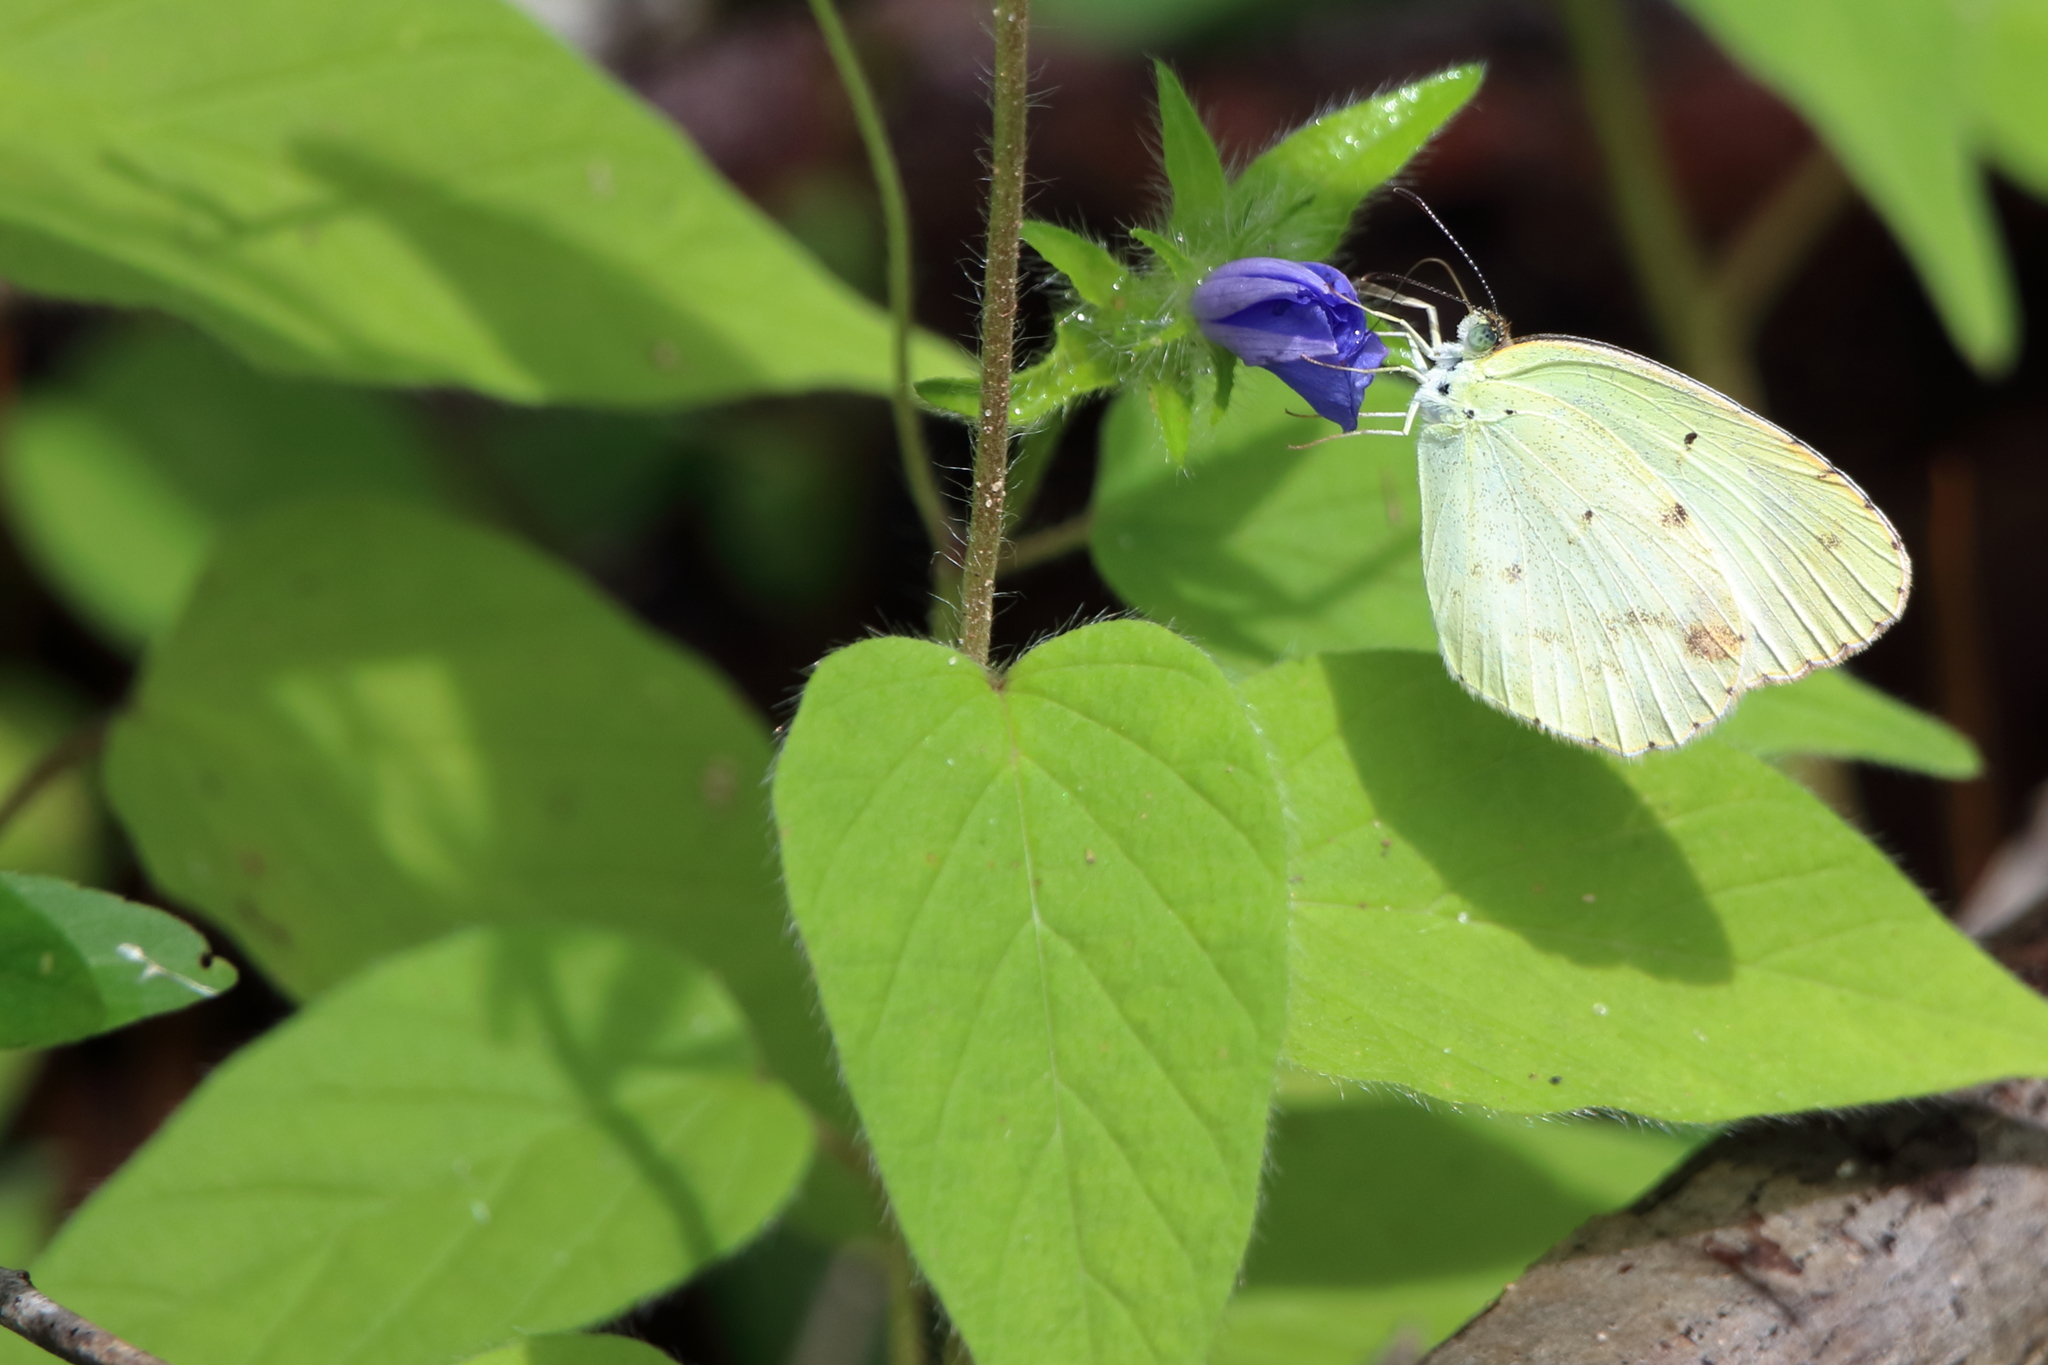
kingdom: Animalia
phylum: Arthropoda
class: Insecta
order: Lepidoptera
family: Pieridae
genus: Pyrisitia
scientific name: Pyrisitia lisa
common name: Little yellow
